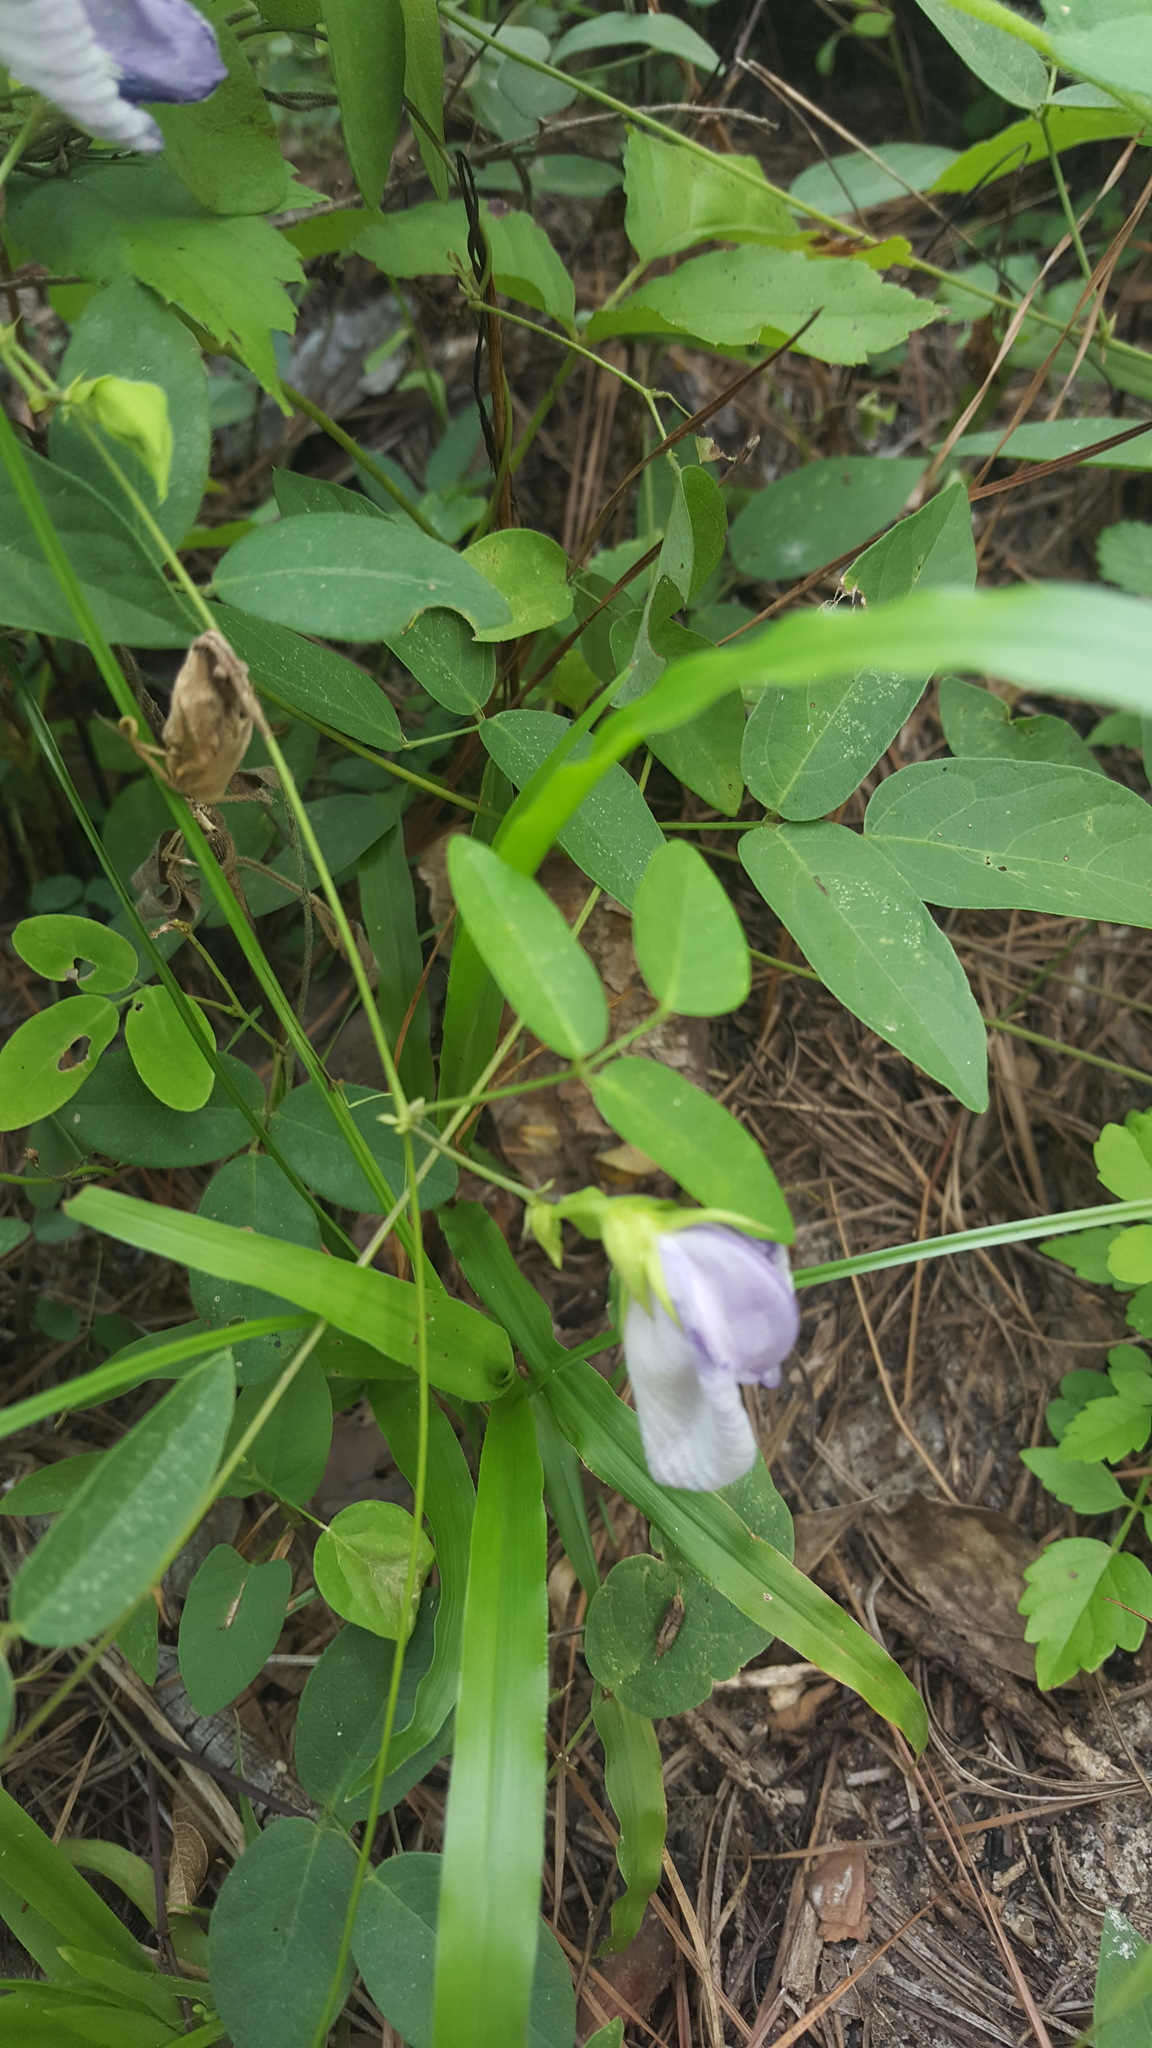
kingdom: Plantae
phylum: Tracheophyta
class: Magnoliopsida
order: Fabales
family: Fabaceae
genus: Centrosema
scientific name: Centrosema virginianum
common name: Butterfly-pea
